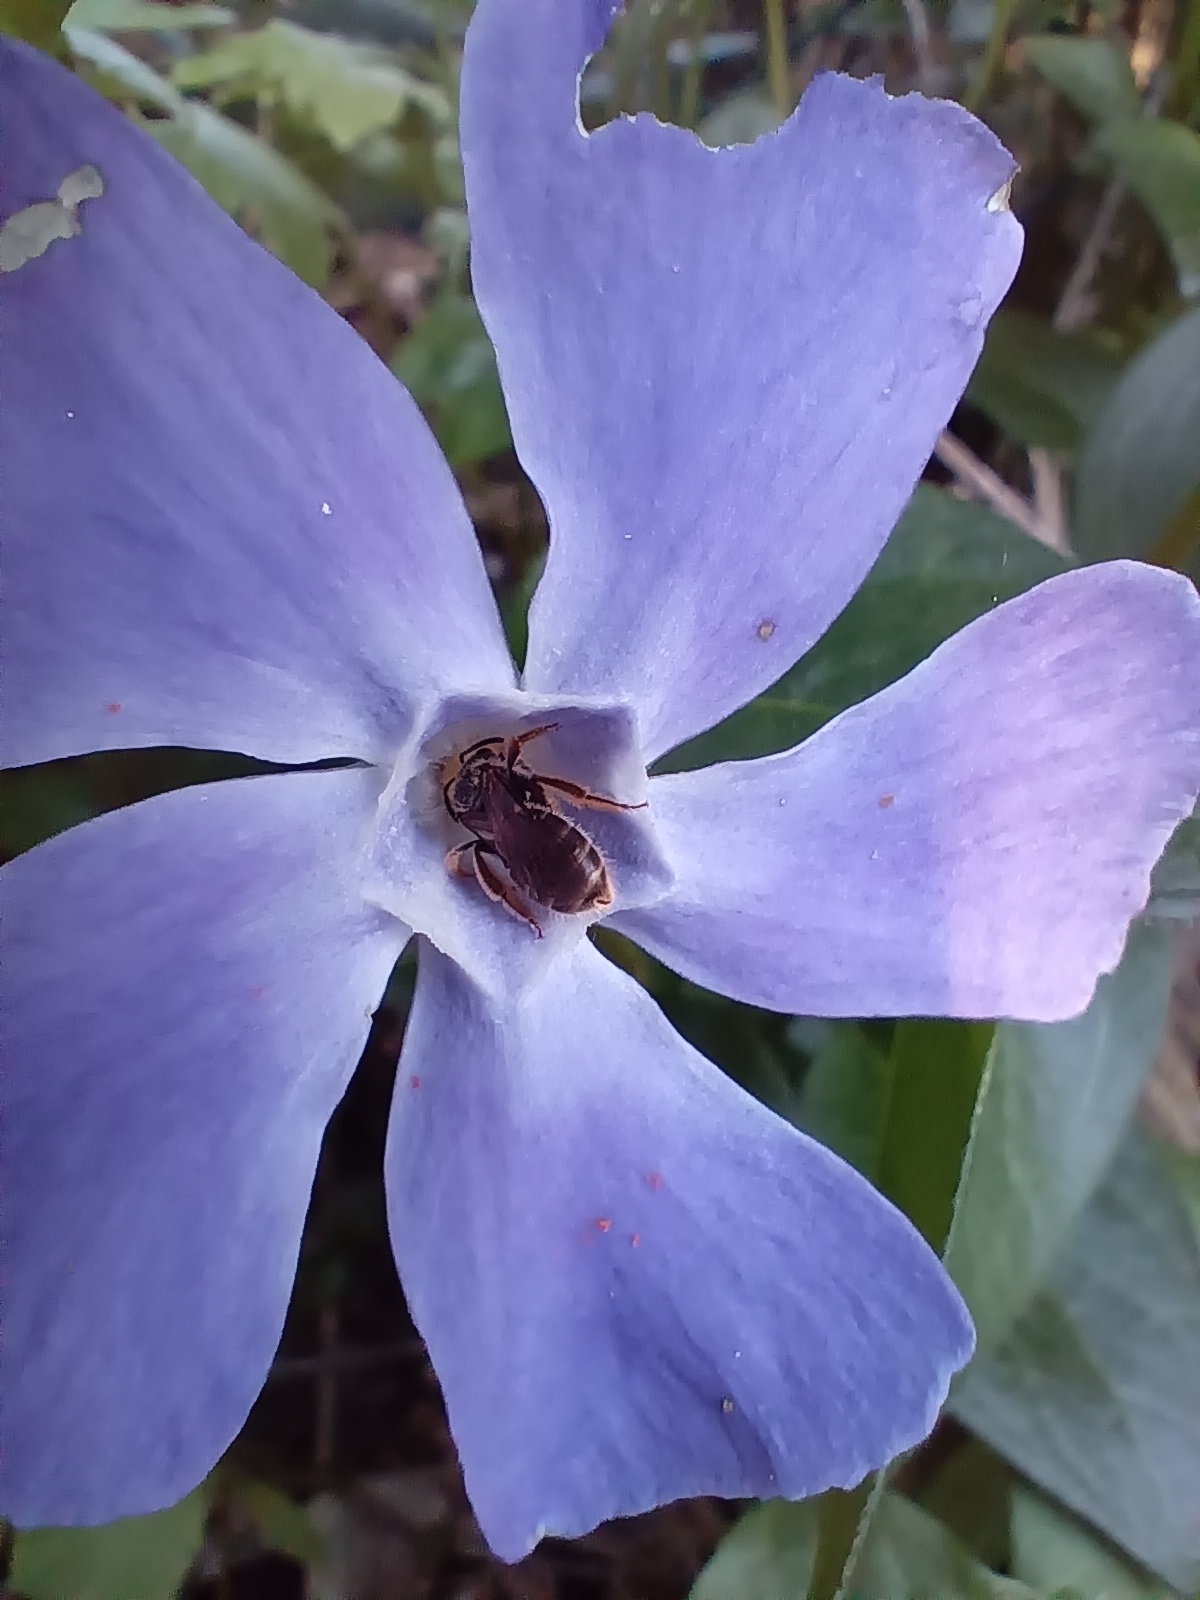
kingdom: Plantae
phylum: Tracheophyta
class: Magnoliopsida
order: Gentianales
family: Apocynaceae
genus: Vinca
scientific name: Vinca major
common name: Greater periwinkle
